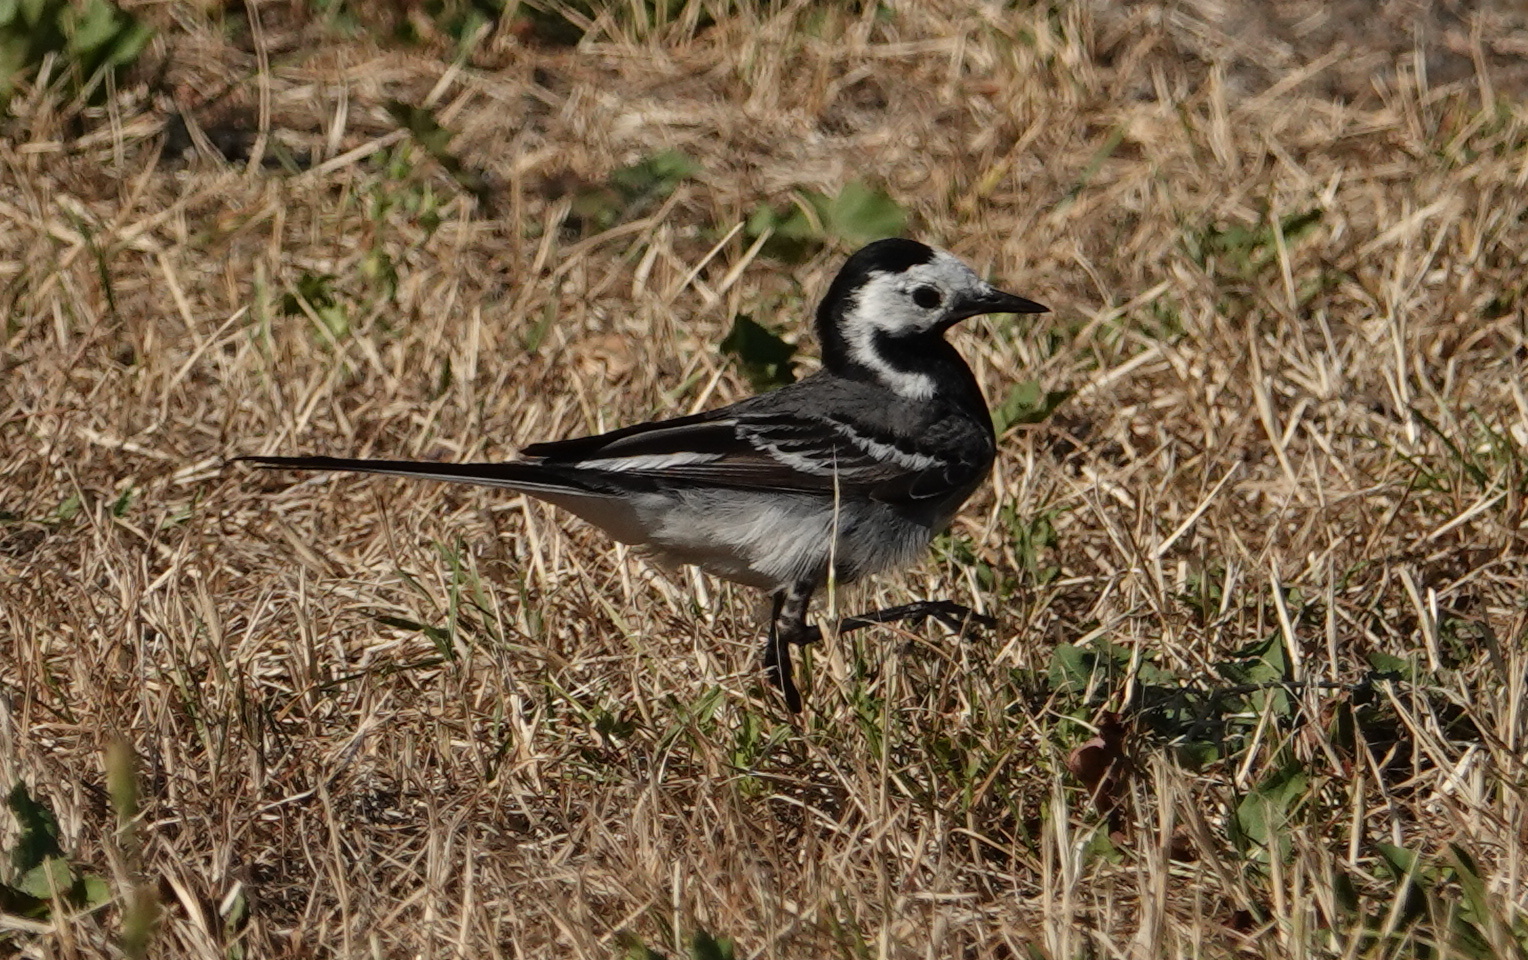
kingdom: Animalia
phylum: Chordata
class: Aves
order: Passeriformes
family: Motacillidae
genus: Motacilla
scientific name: Motacilla alba
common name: White wagtail
